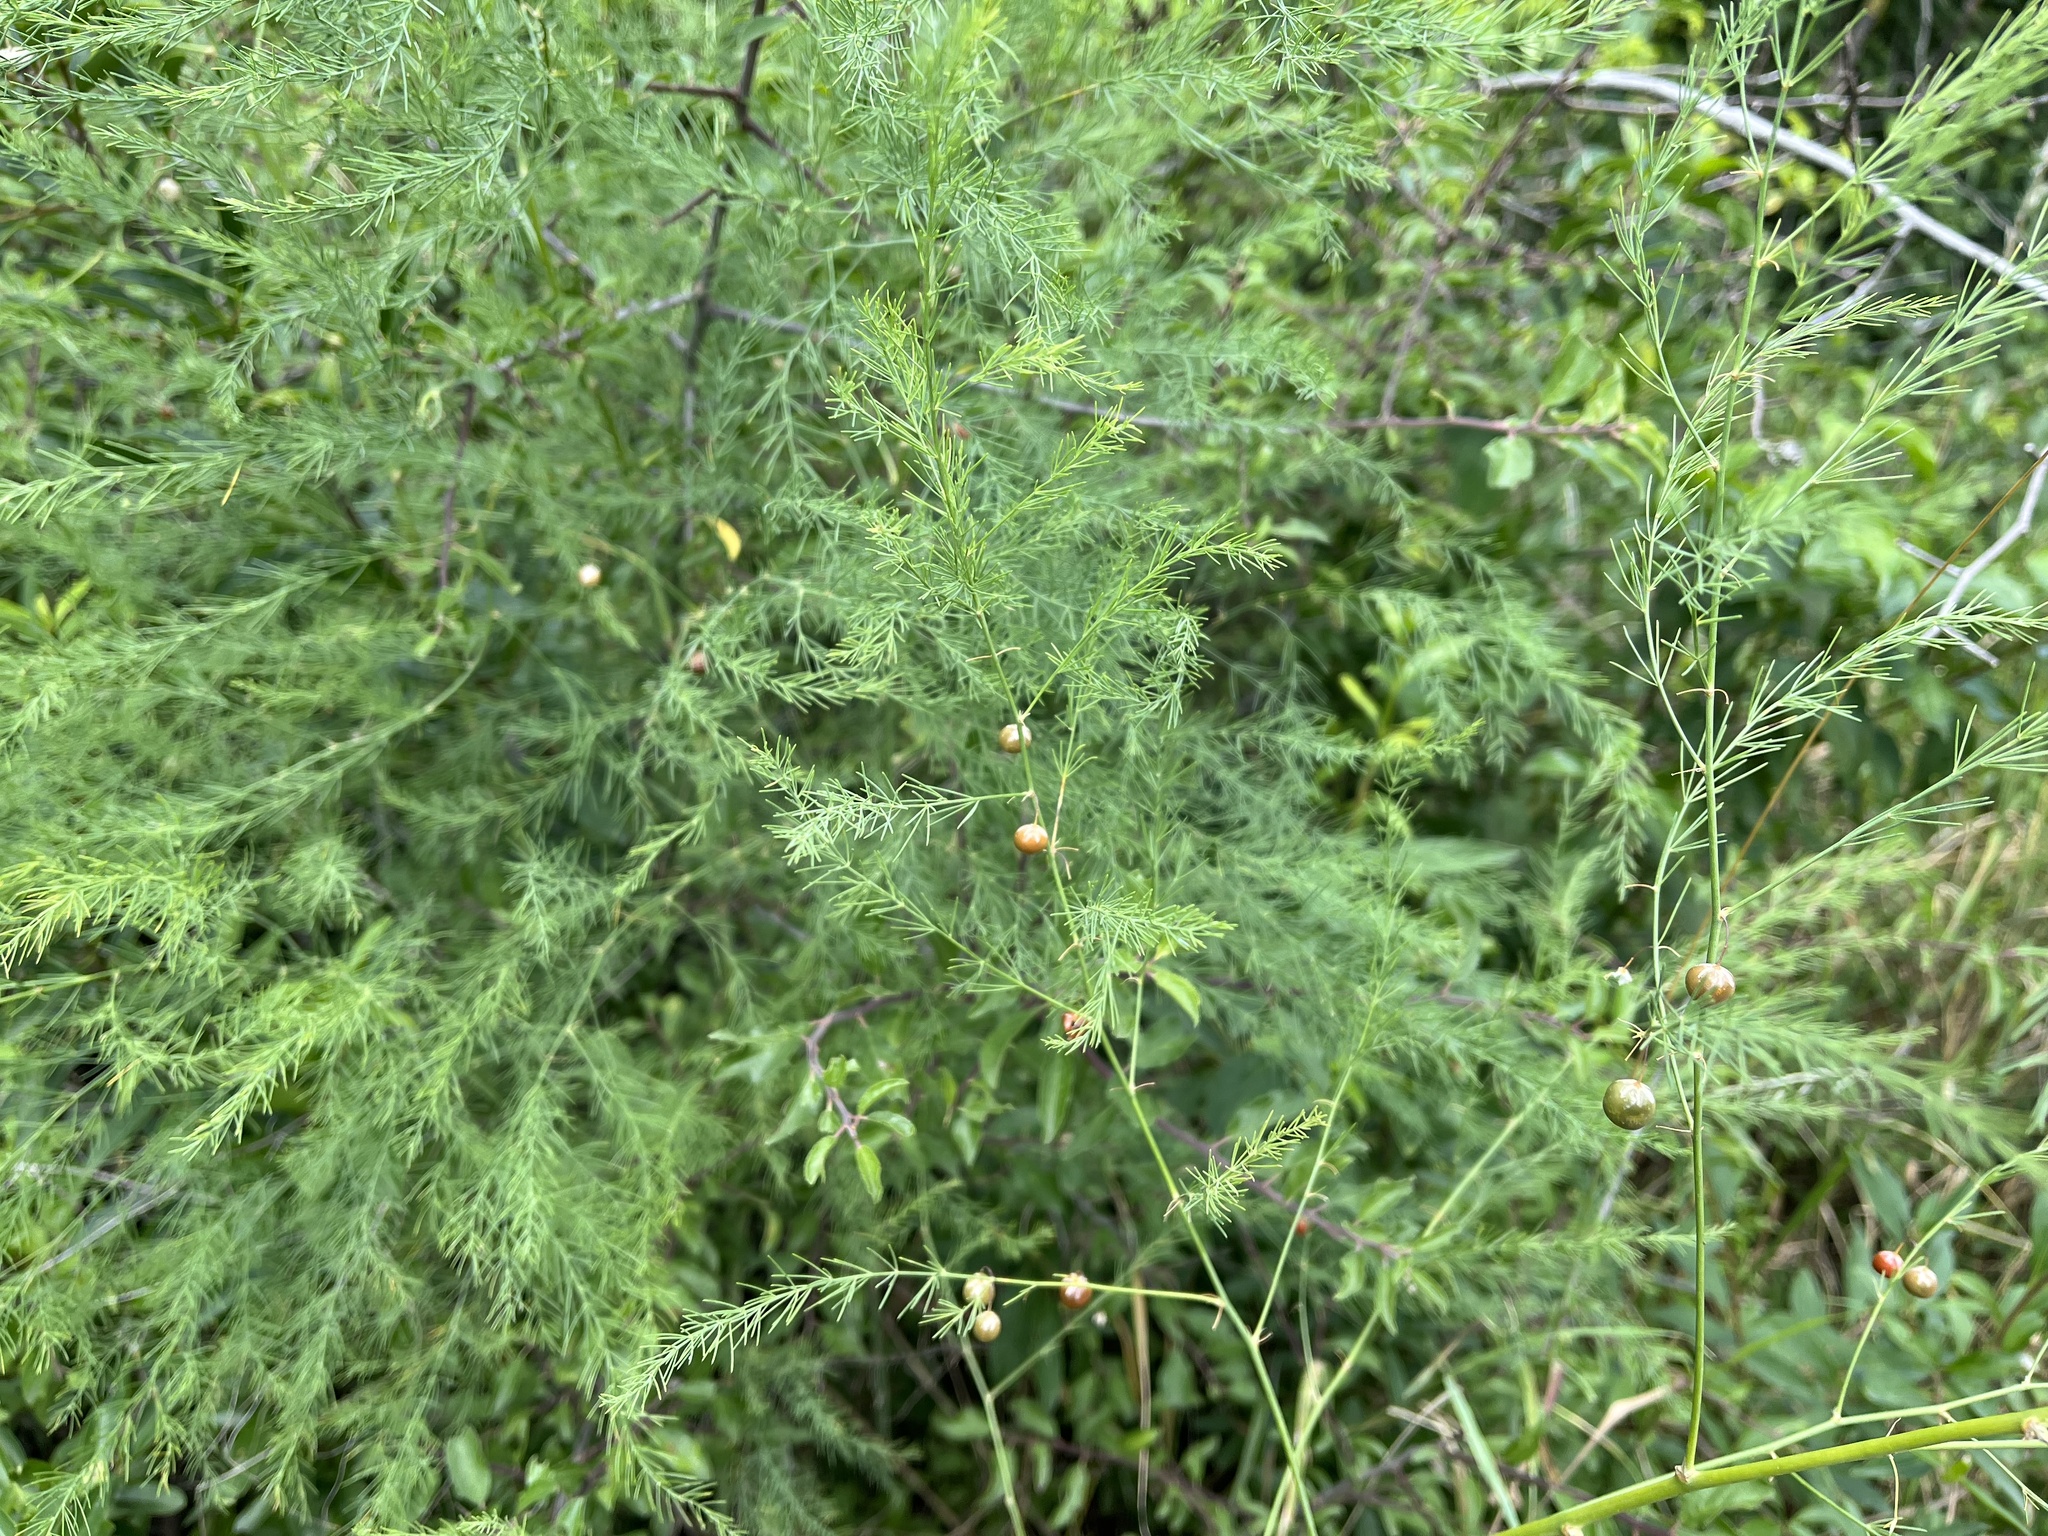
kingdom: Plantae
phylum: Tracheophyta
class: Liliopsida
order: Asparagales
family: Asparagaceae
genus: Asparagus
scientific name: Asparagus officinalis
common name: Garden asparagus
